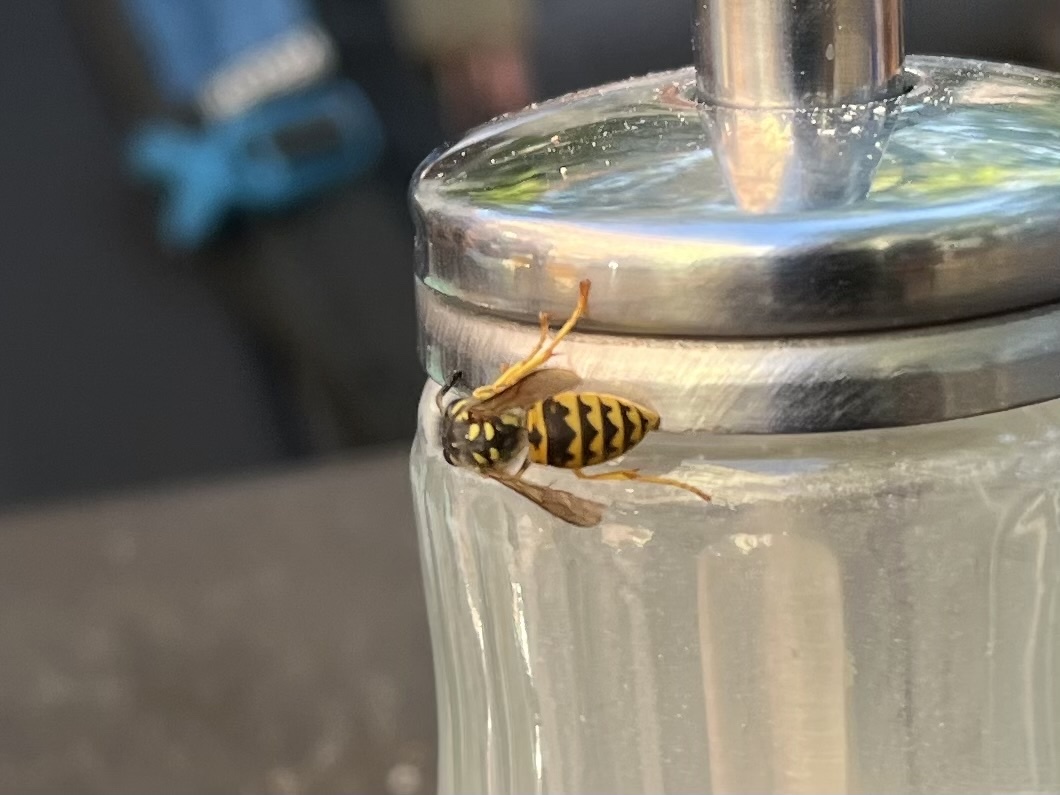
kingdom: Animalia
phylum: Arthropoda
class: Insecta
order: Hymenoptera
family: Vespidae
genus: Vespula
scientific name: Vespula germanica
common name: German wasp
